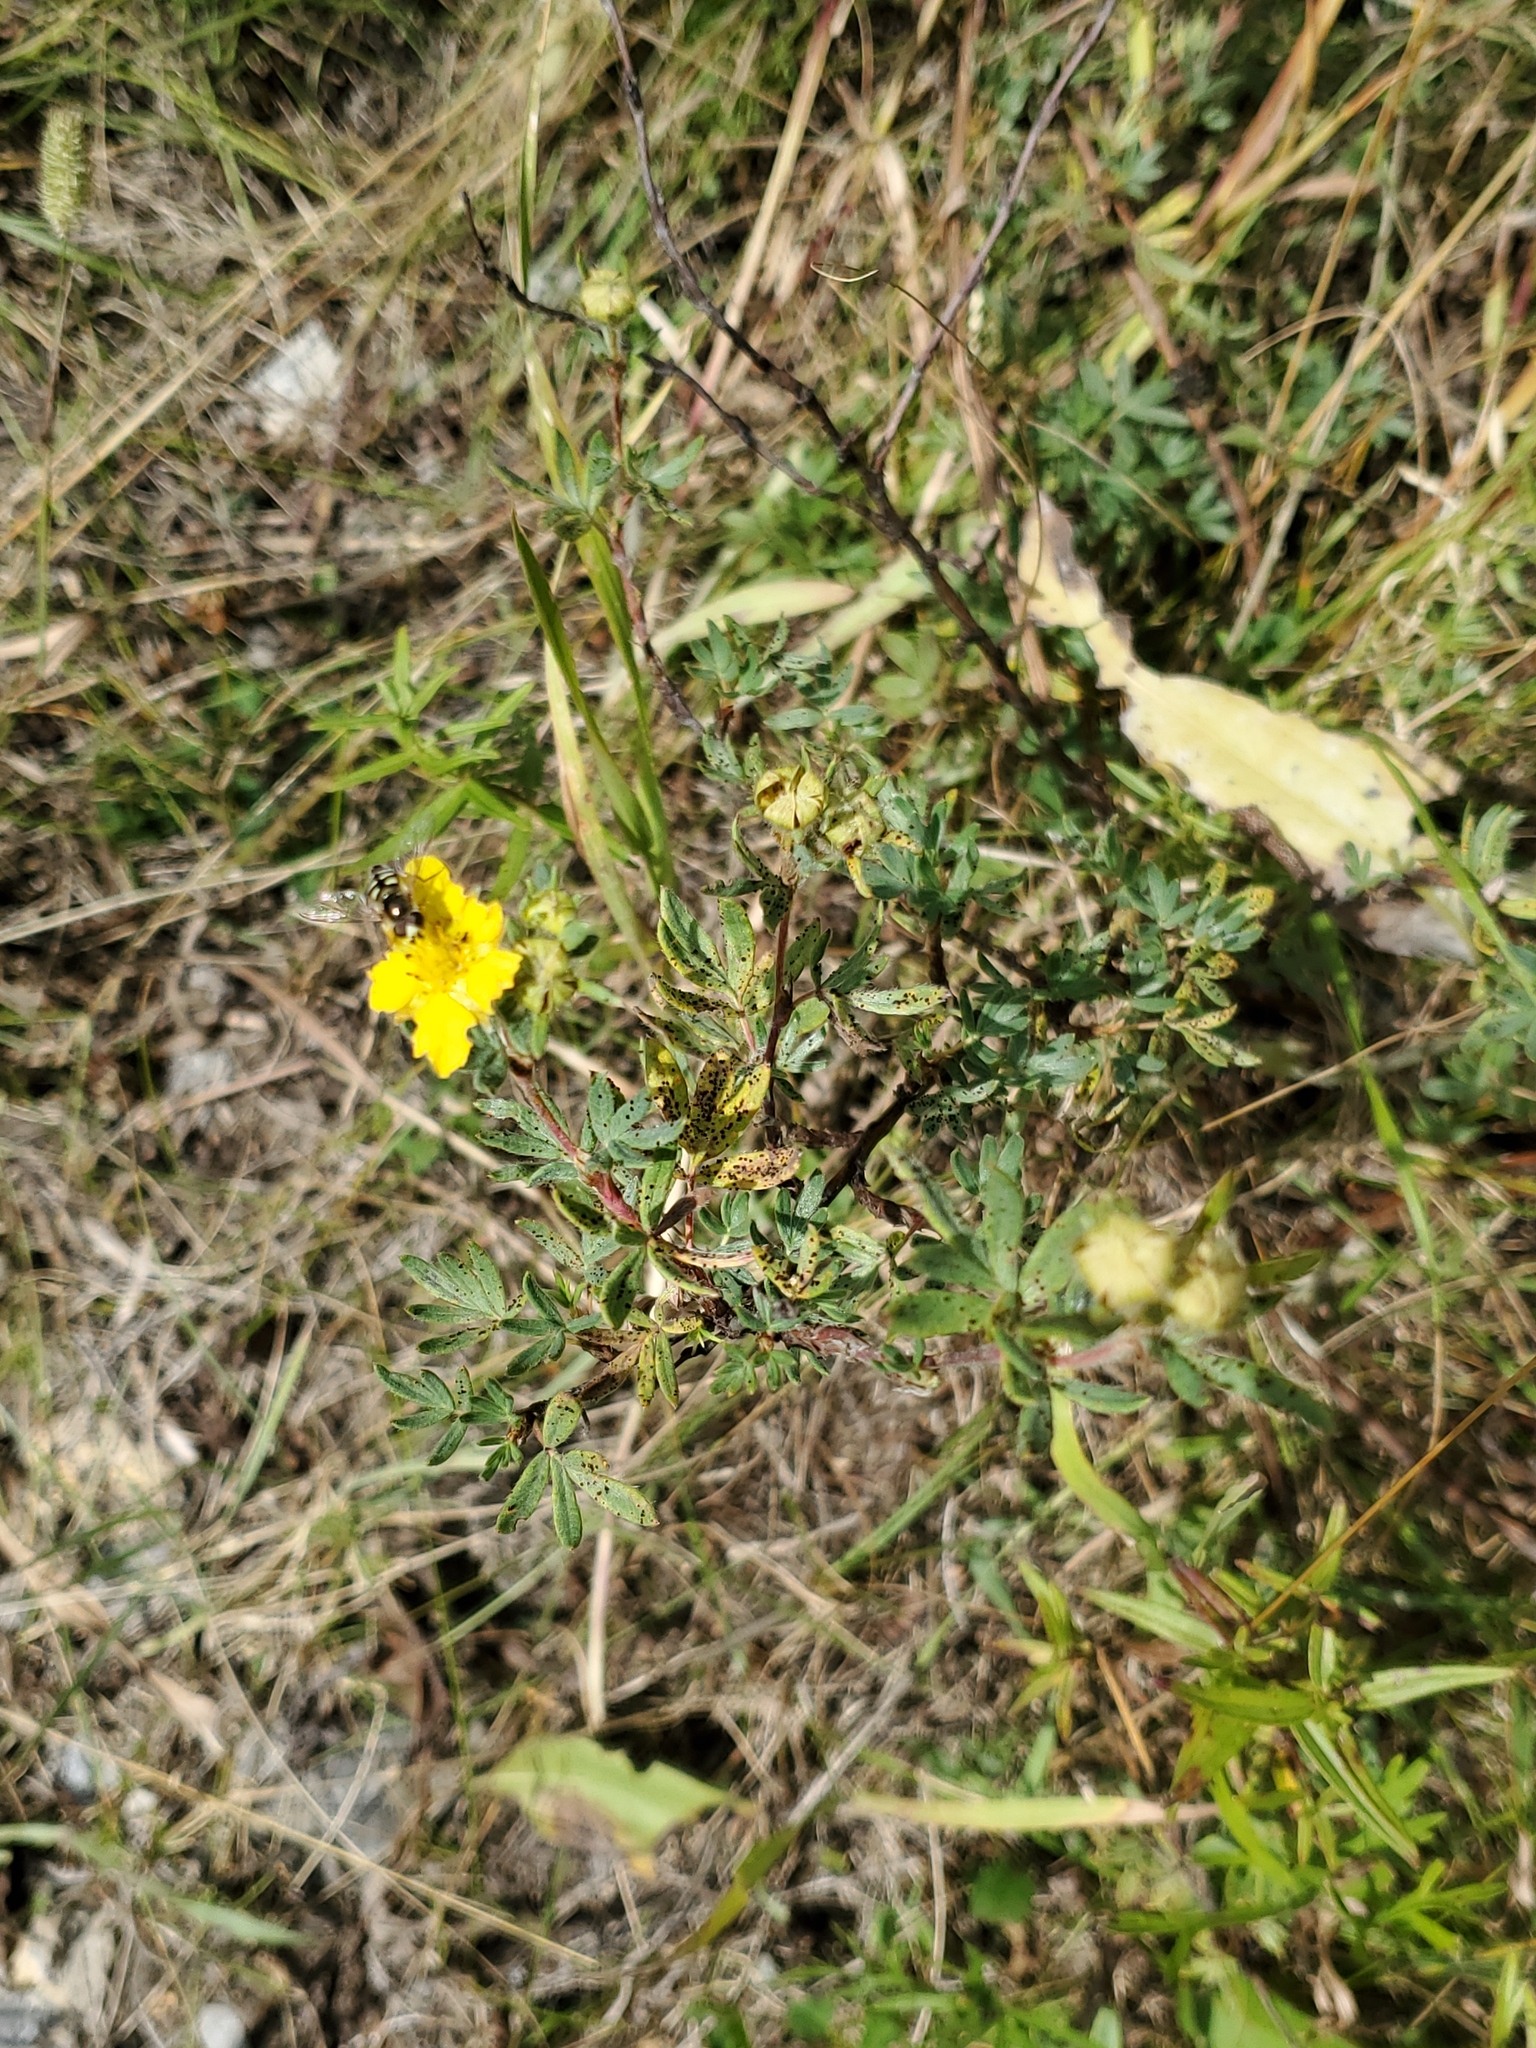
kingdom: Plantae
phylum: Tracheophyta
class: Magnoliopsida
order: Rosales
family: Rosaceae
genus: Dasiphora
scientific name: Dasiphora fruticosa
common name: Shrubby cinquefoil
